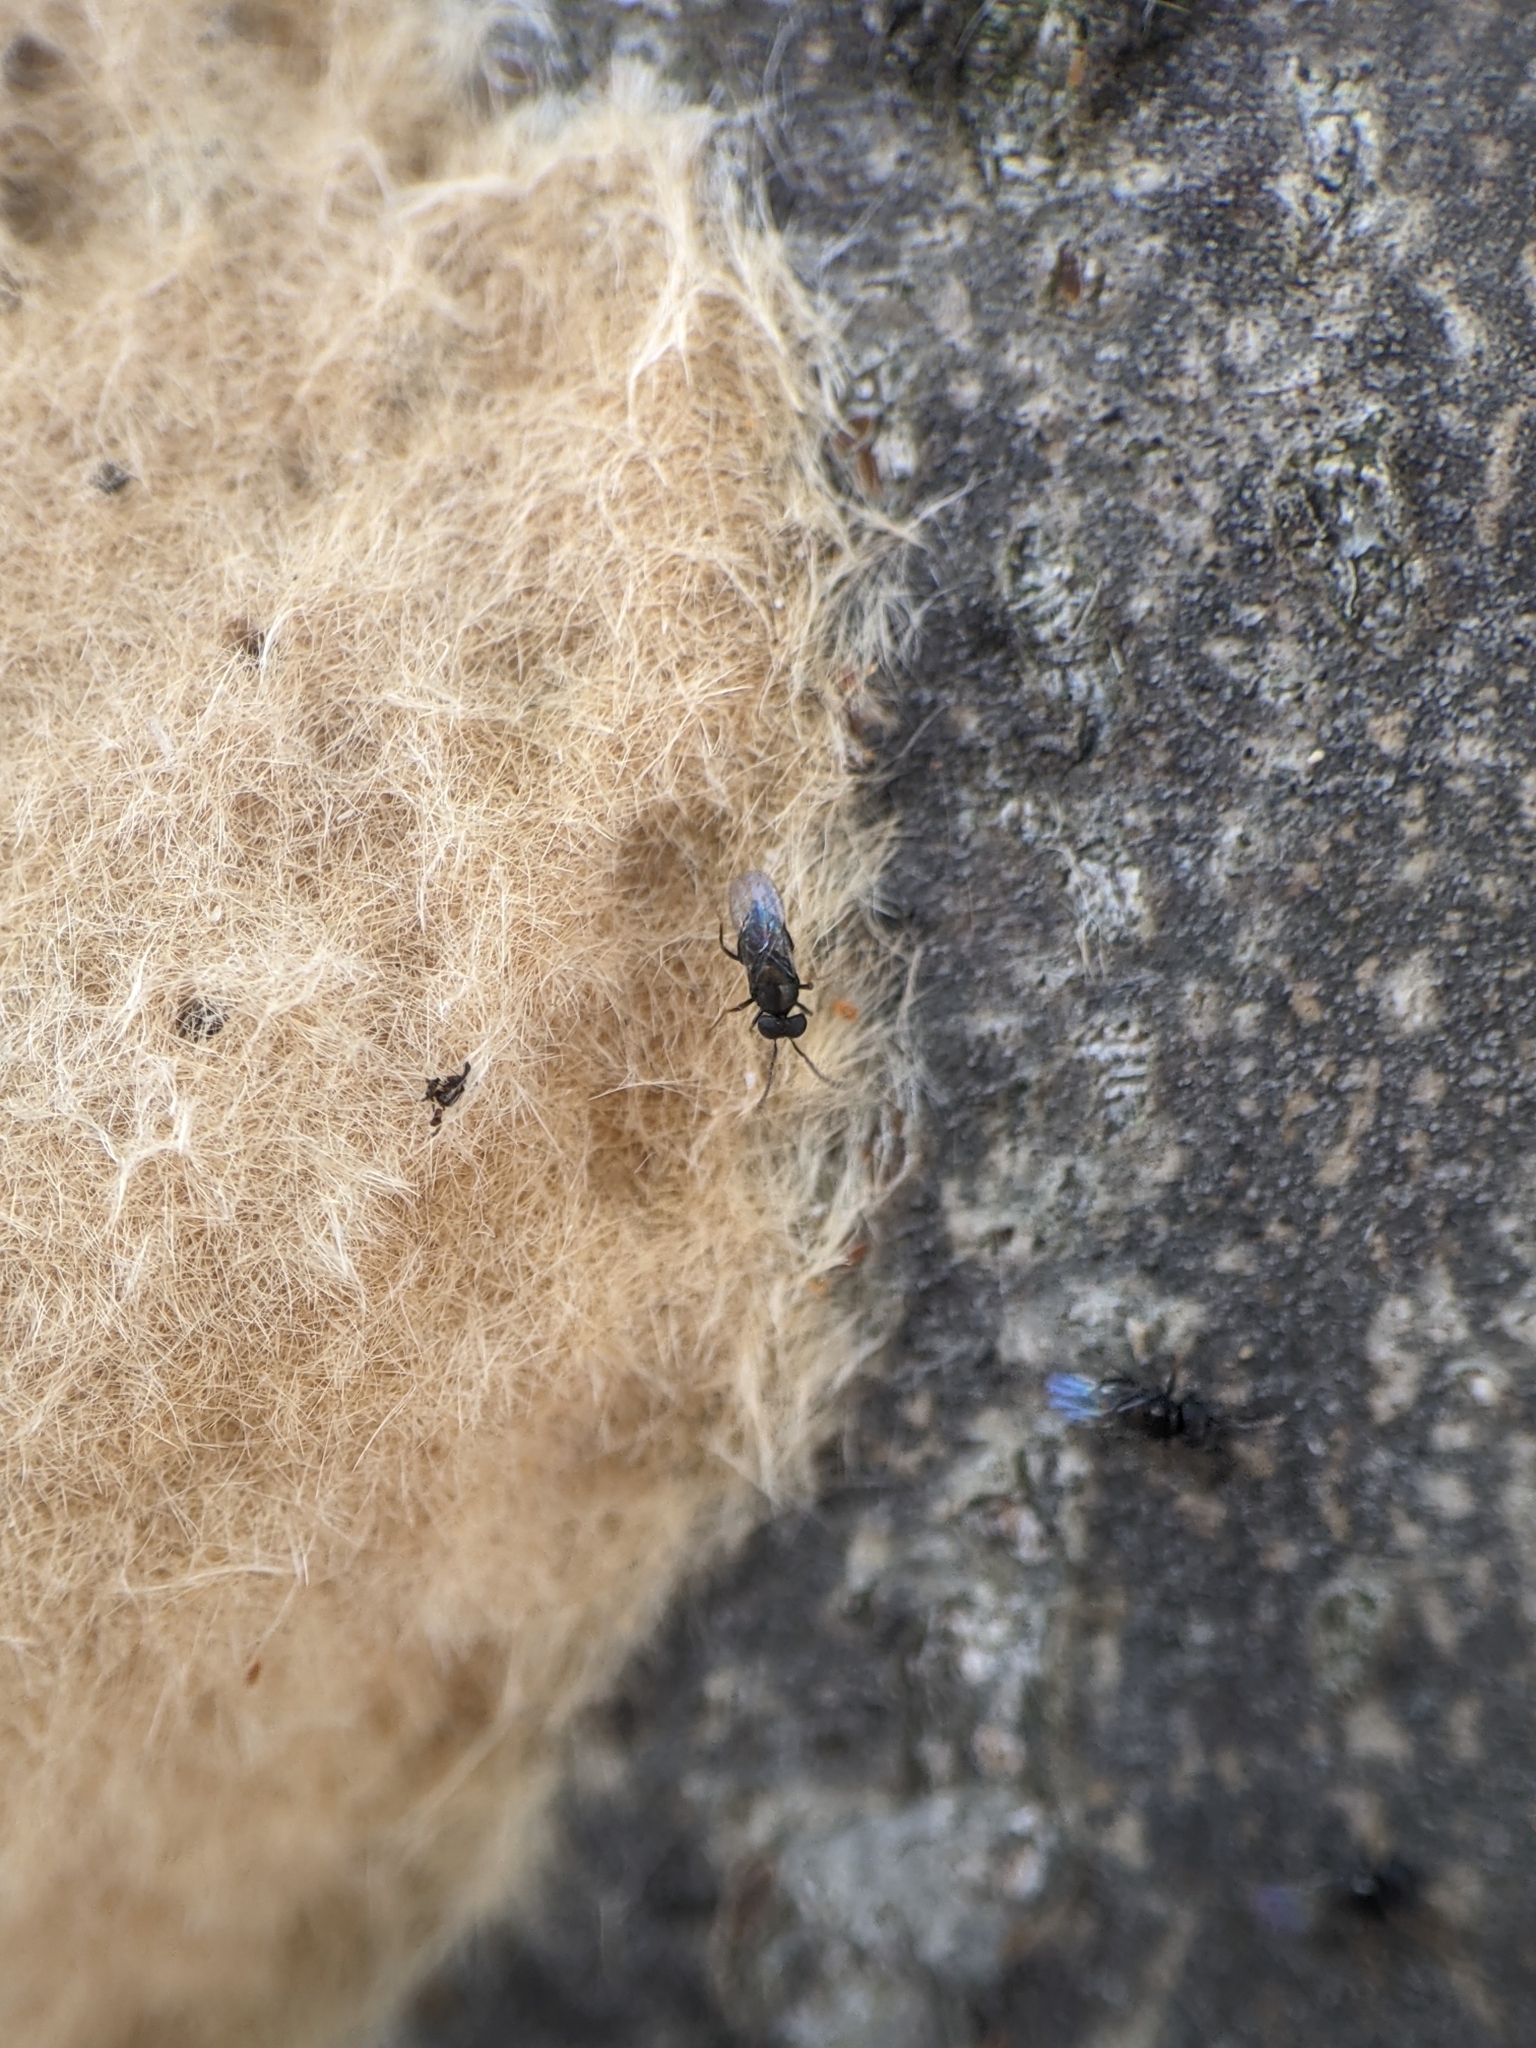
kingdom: Animalia
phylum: Arthropoda
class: Insecta
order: Hymenoptera
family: Encyrtidae
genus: Ooencyrtus
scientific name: Ooencyrtus kuvanae
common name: Wasp
